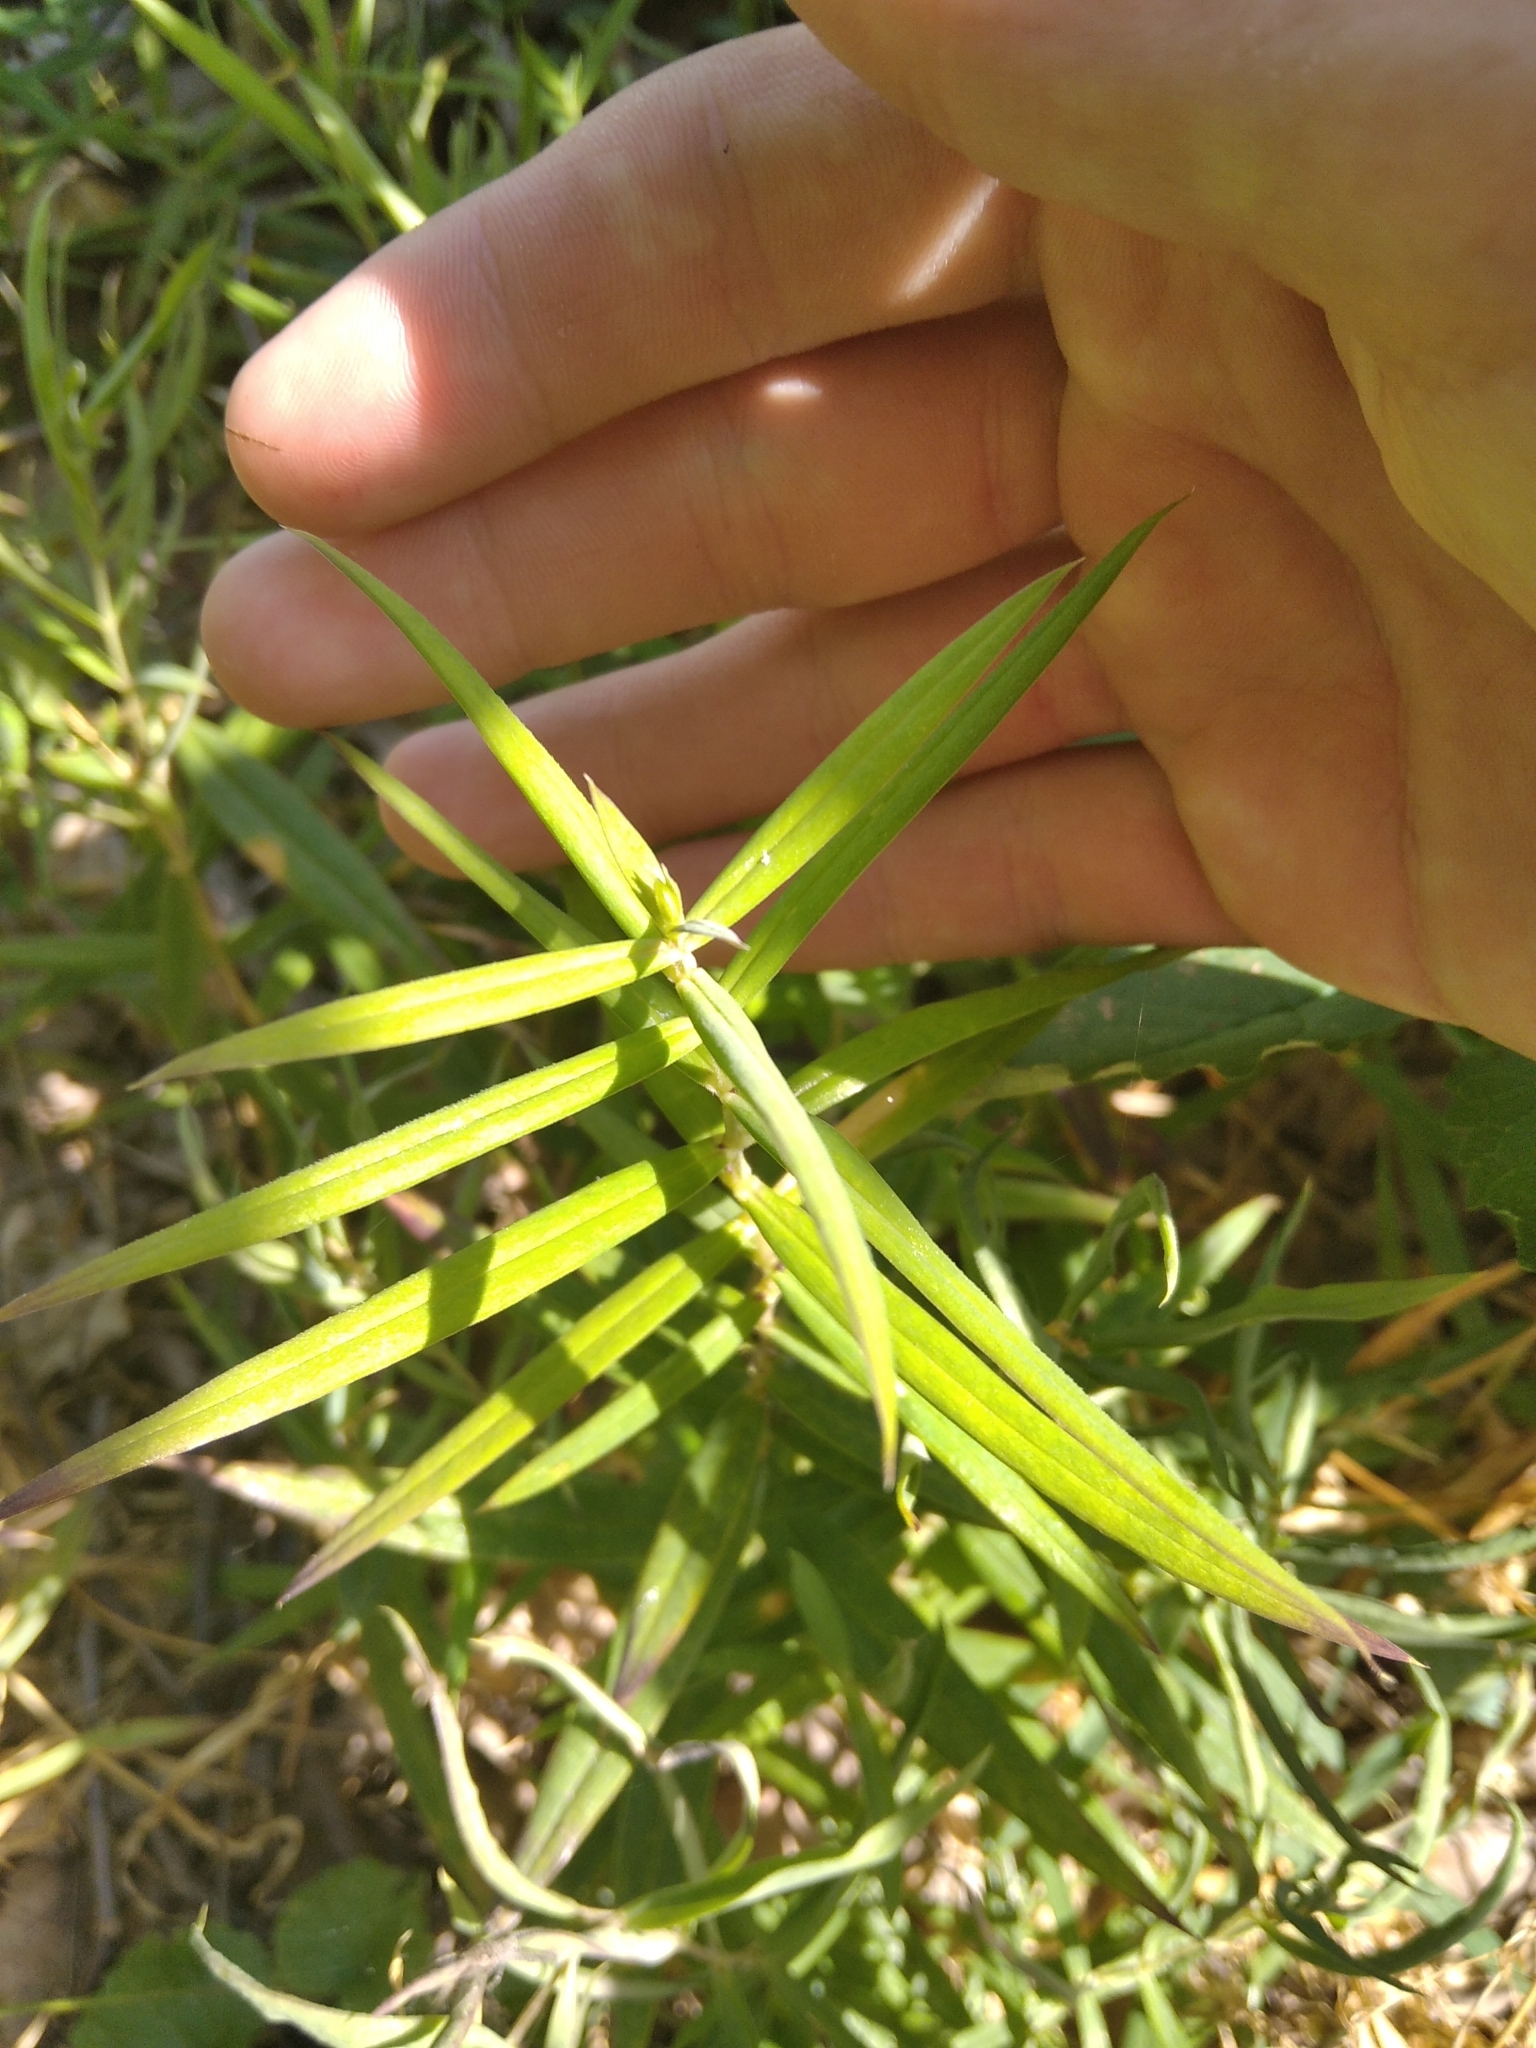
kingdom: Plantae
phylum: Tracheophyta
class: Magnoliopsida
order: Caryophyllales
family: Caryophyllaceae
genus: Rabelera
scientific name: Rabelera holostea
